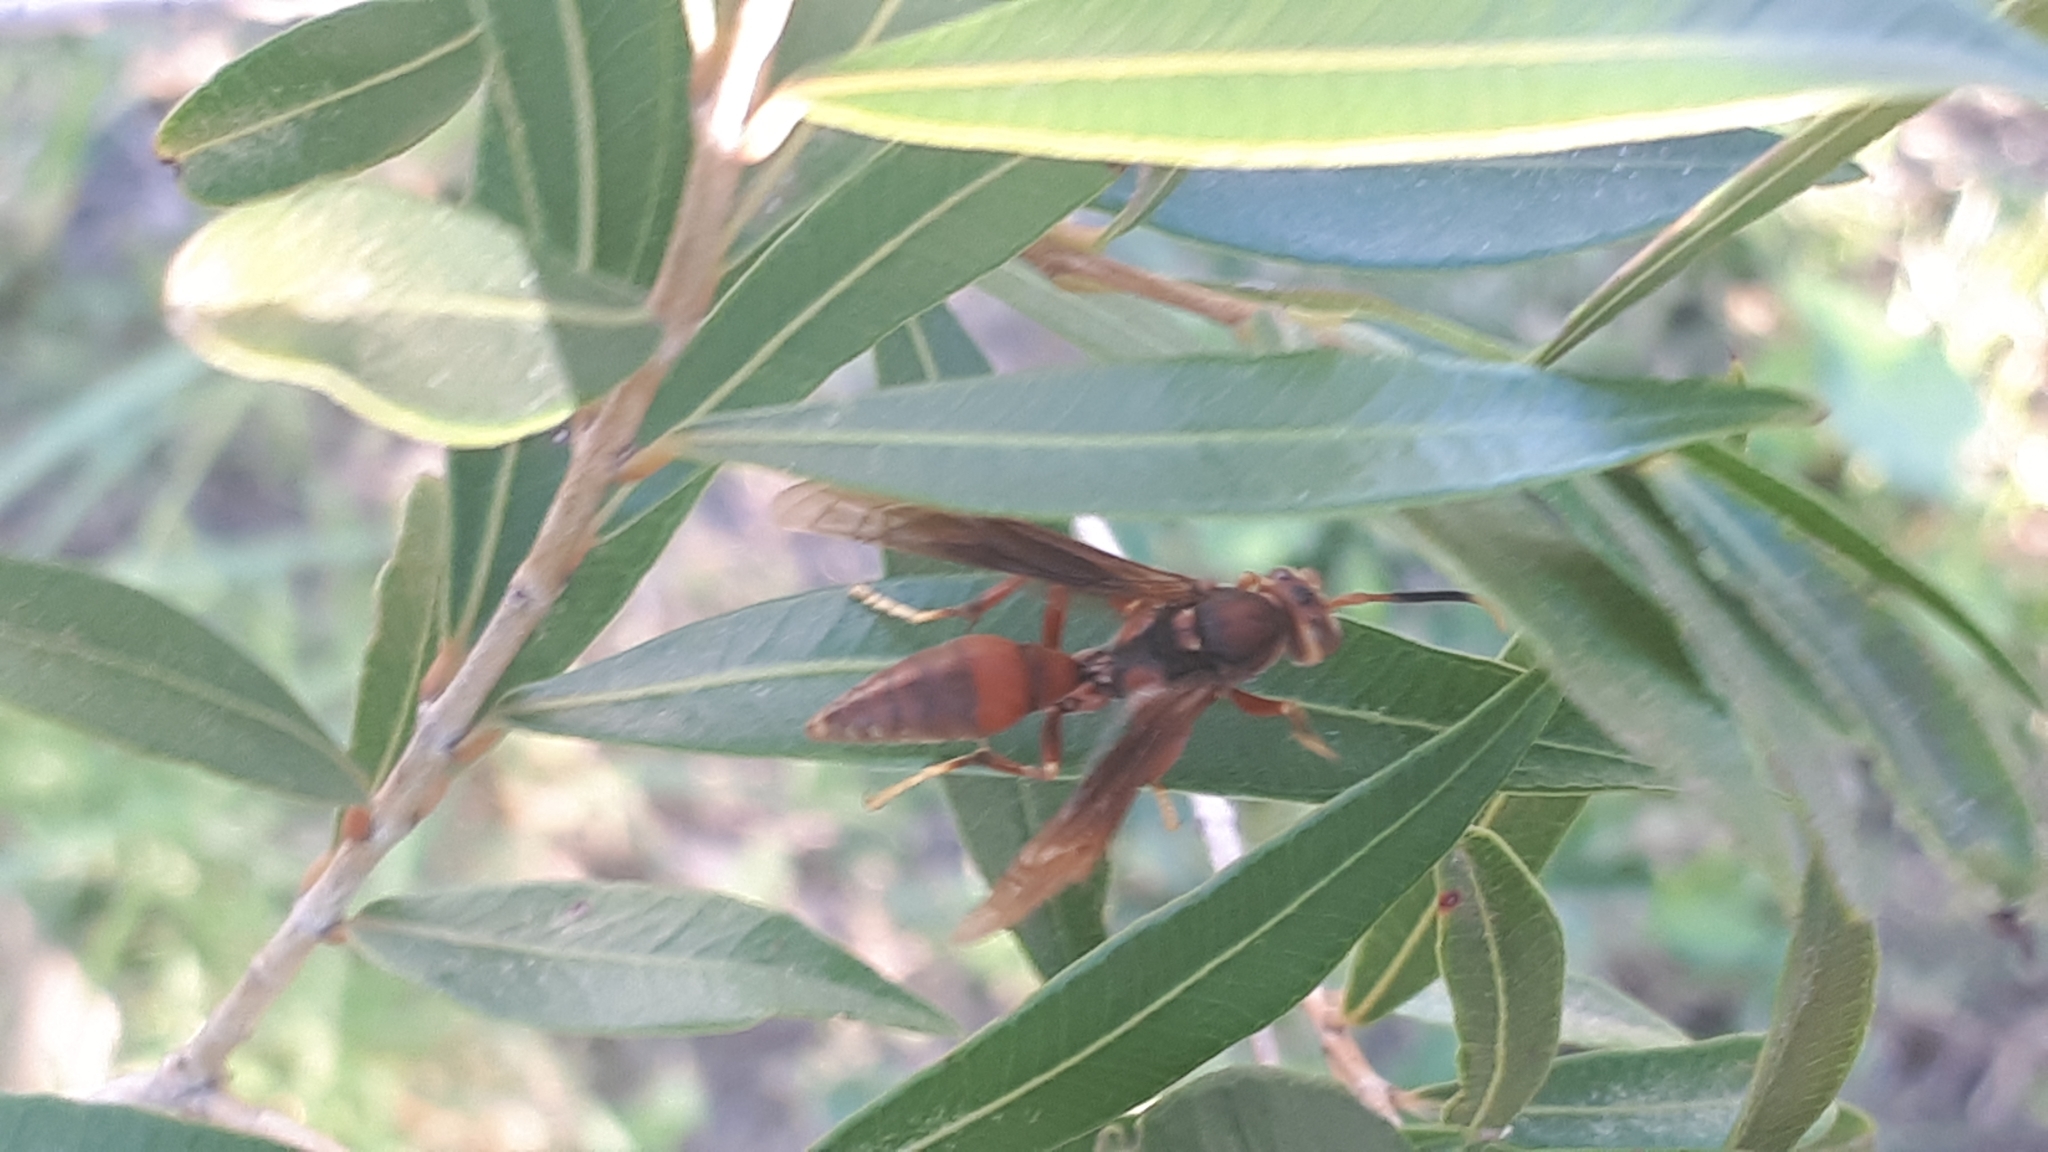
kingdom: Animalia
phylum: Arthropoda
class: Insecta
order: Hymenoptera
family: Pompilidae
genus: Aphanilopterus
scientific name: Aphanilopterus
